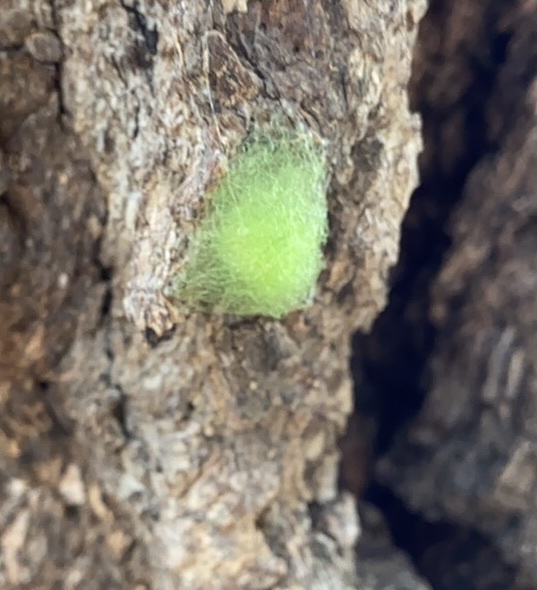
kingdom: Animalia
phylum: Arthropoda
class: Arachnida
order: Araneae
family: Araneidae
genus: Gasteracantha
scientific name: Gasteracantha cancriformis
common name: Orb weavers
